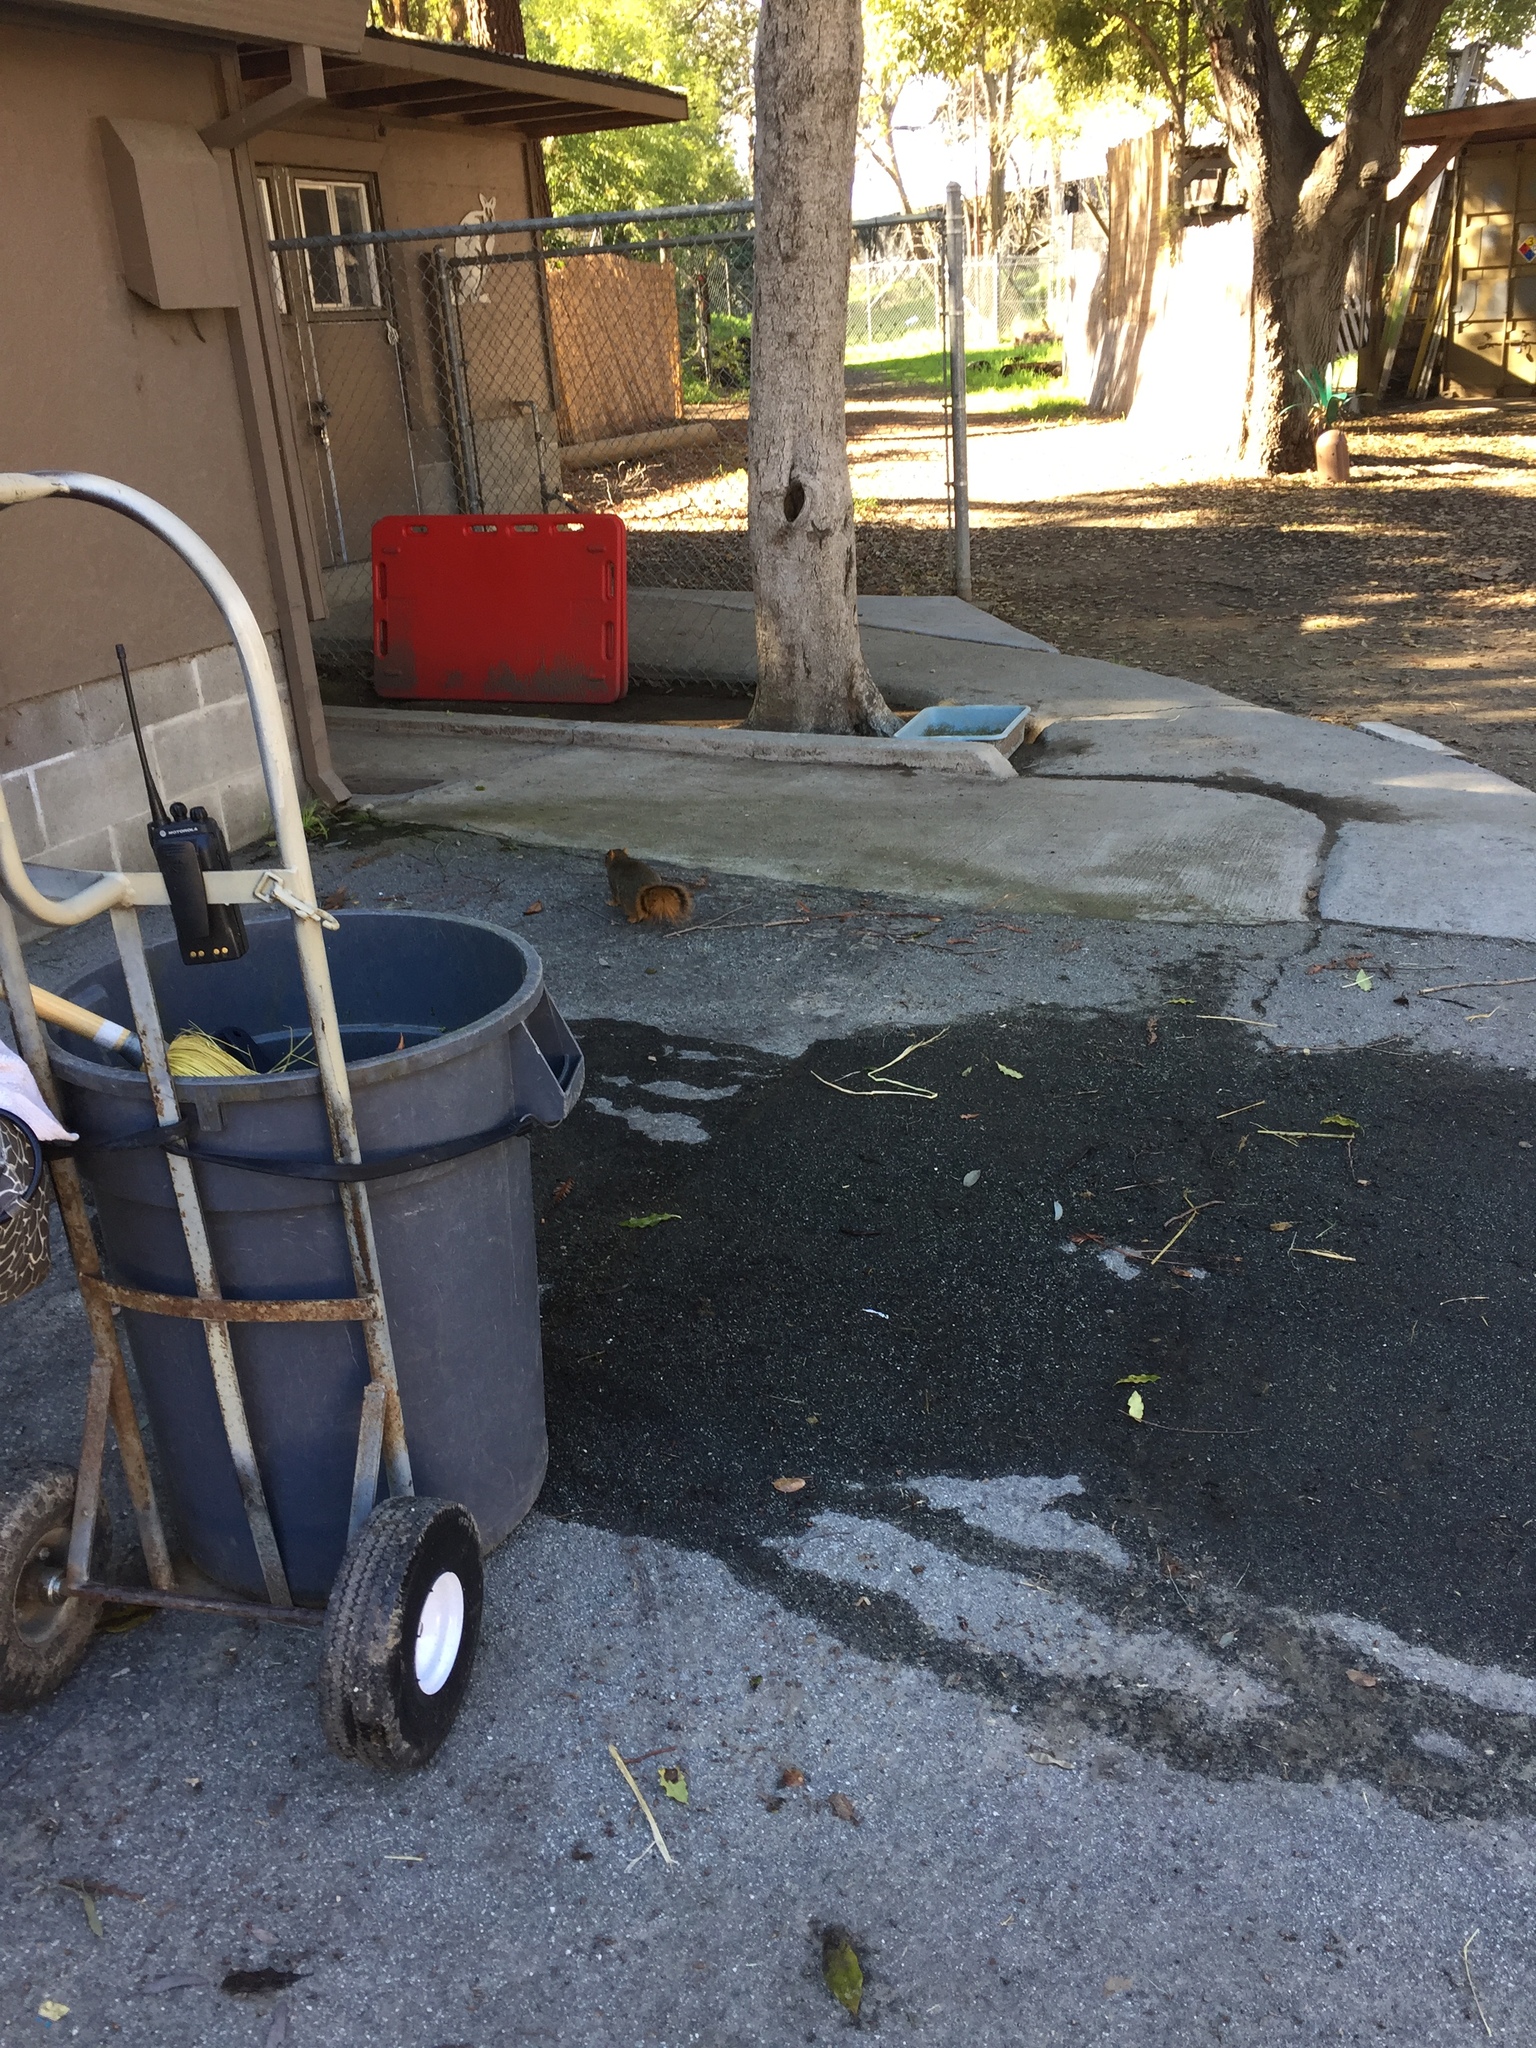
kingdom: Animalia
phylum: Chordata
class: Mammalia
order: Rodentia
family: Sciuridae
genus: Sciurus
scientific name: Sciurus niger
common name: Fox squirrel
